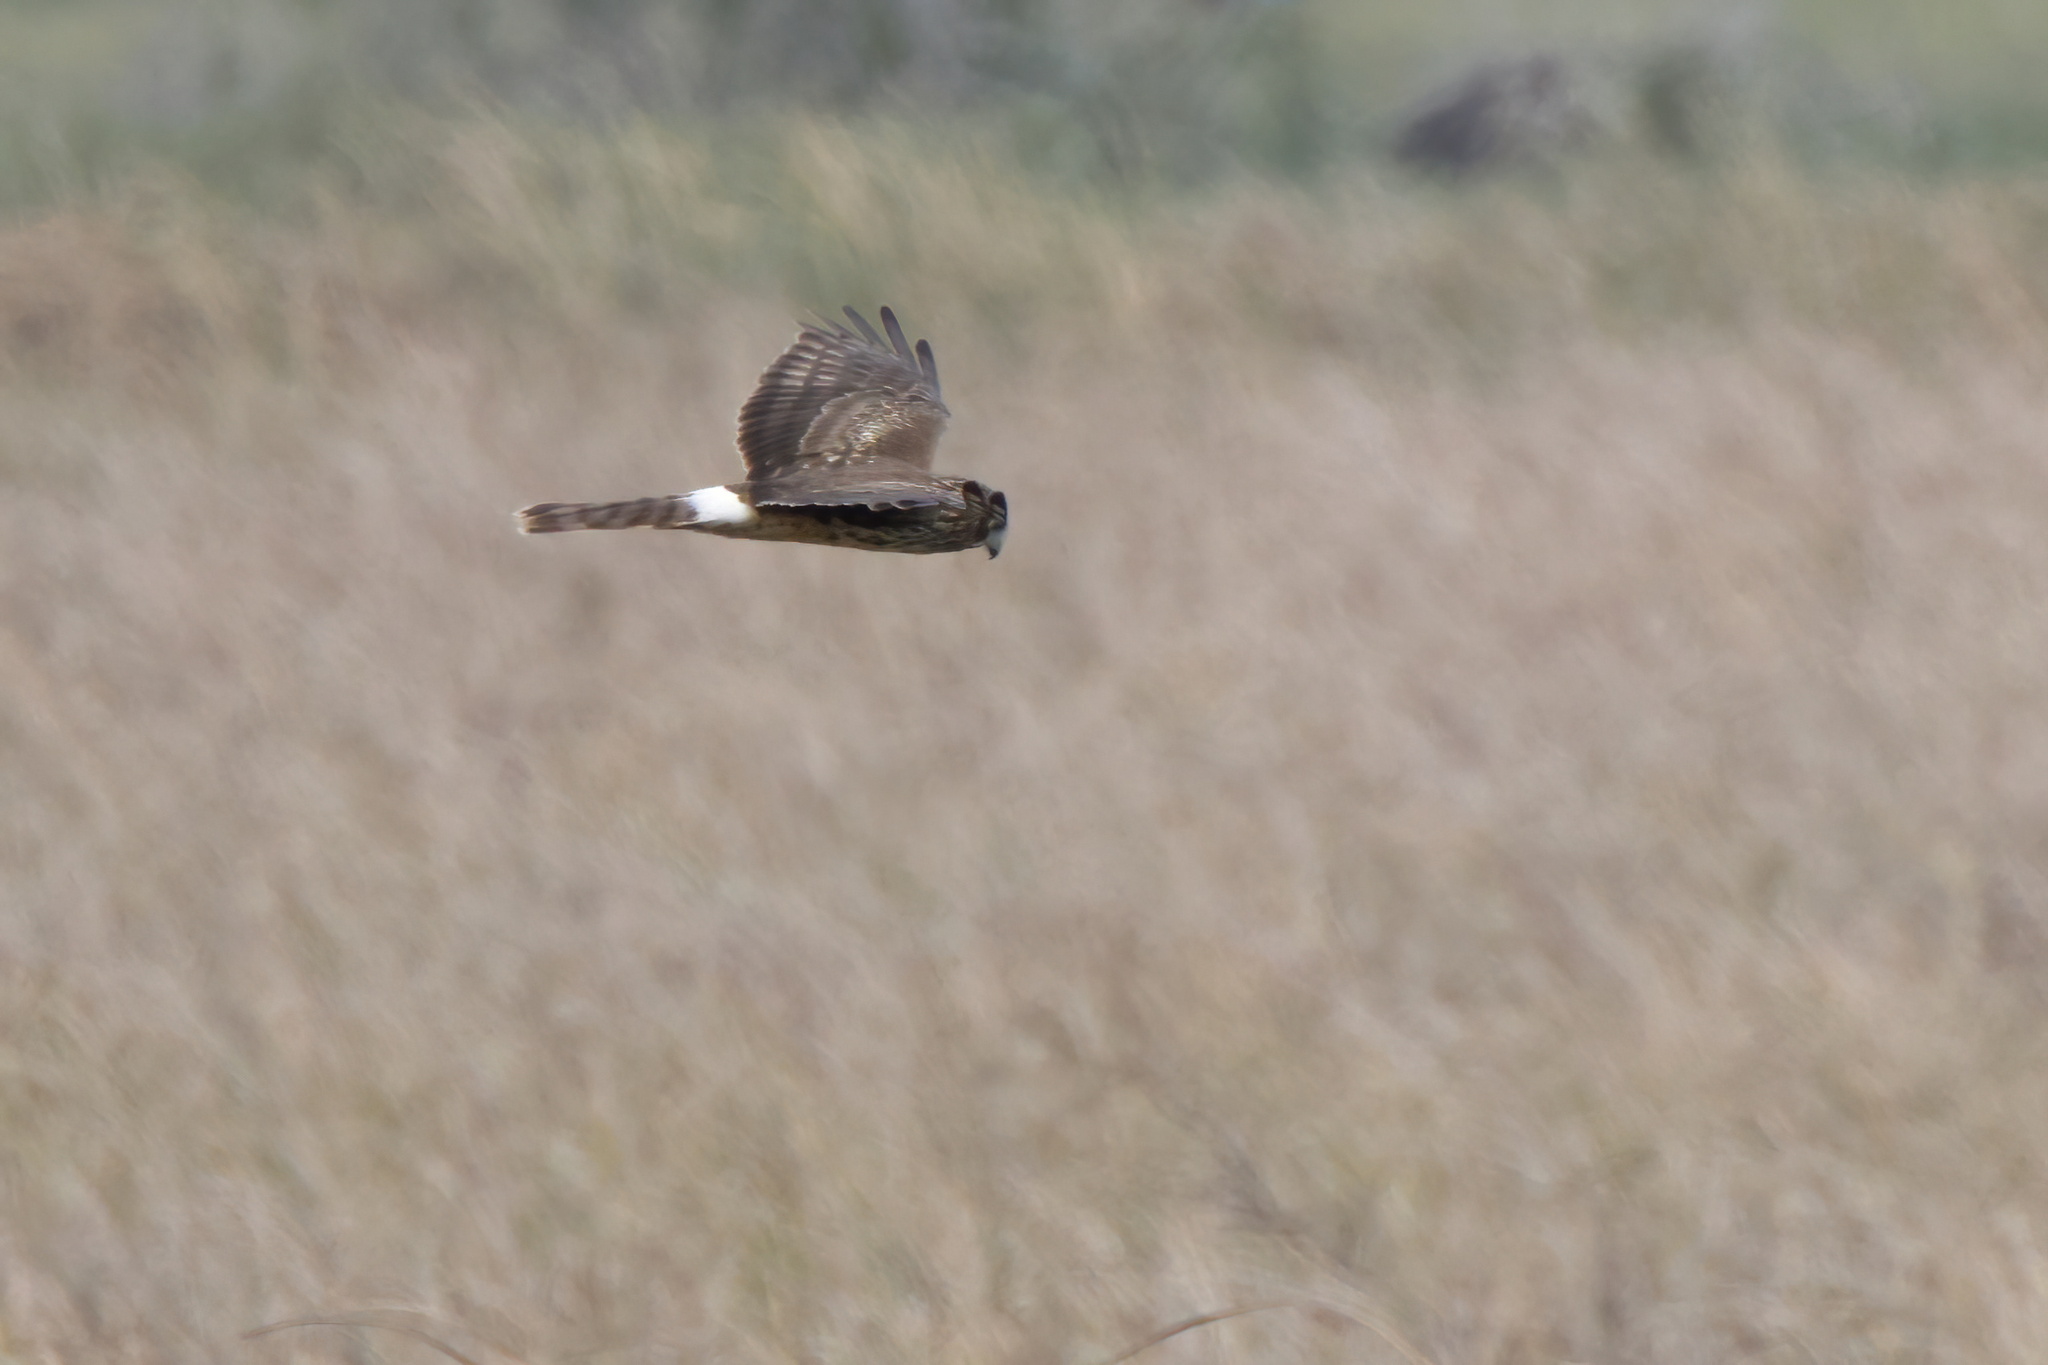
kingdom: Animalia
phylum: Chordata
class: Aves
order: Accipitriformes
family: Accipitridae
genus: Circus
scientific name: Circus cyaneus
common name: Hen harrier
